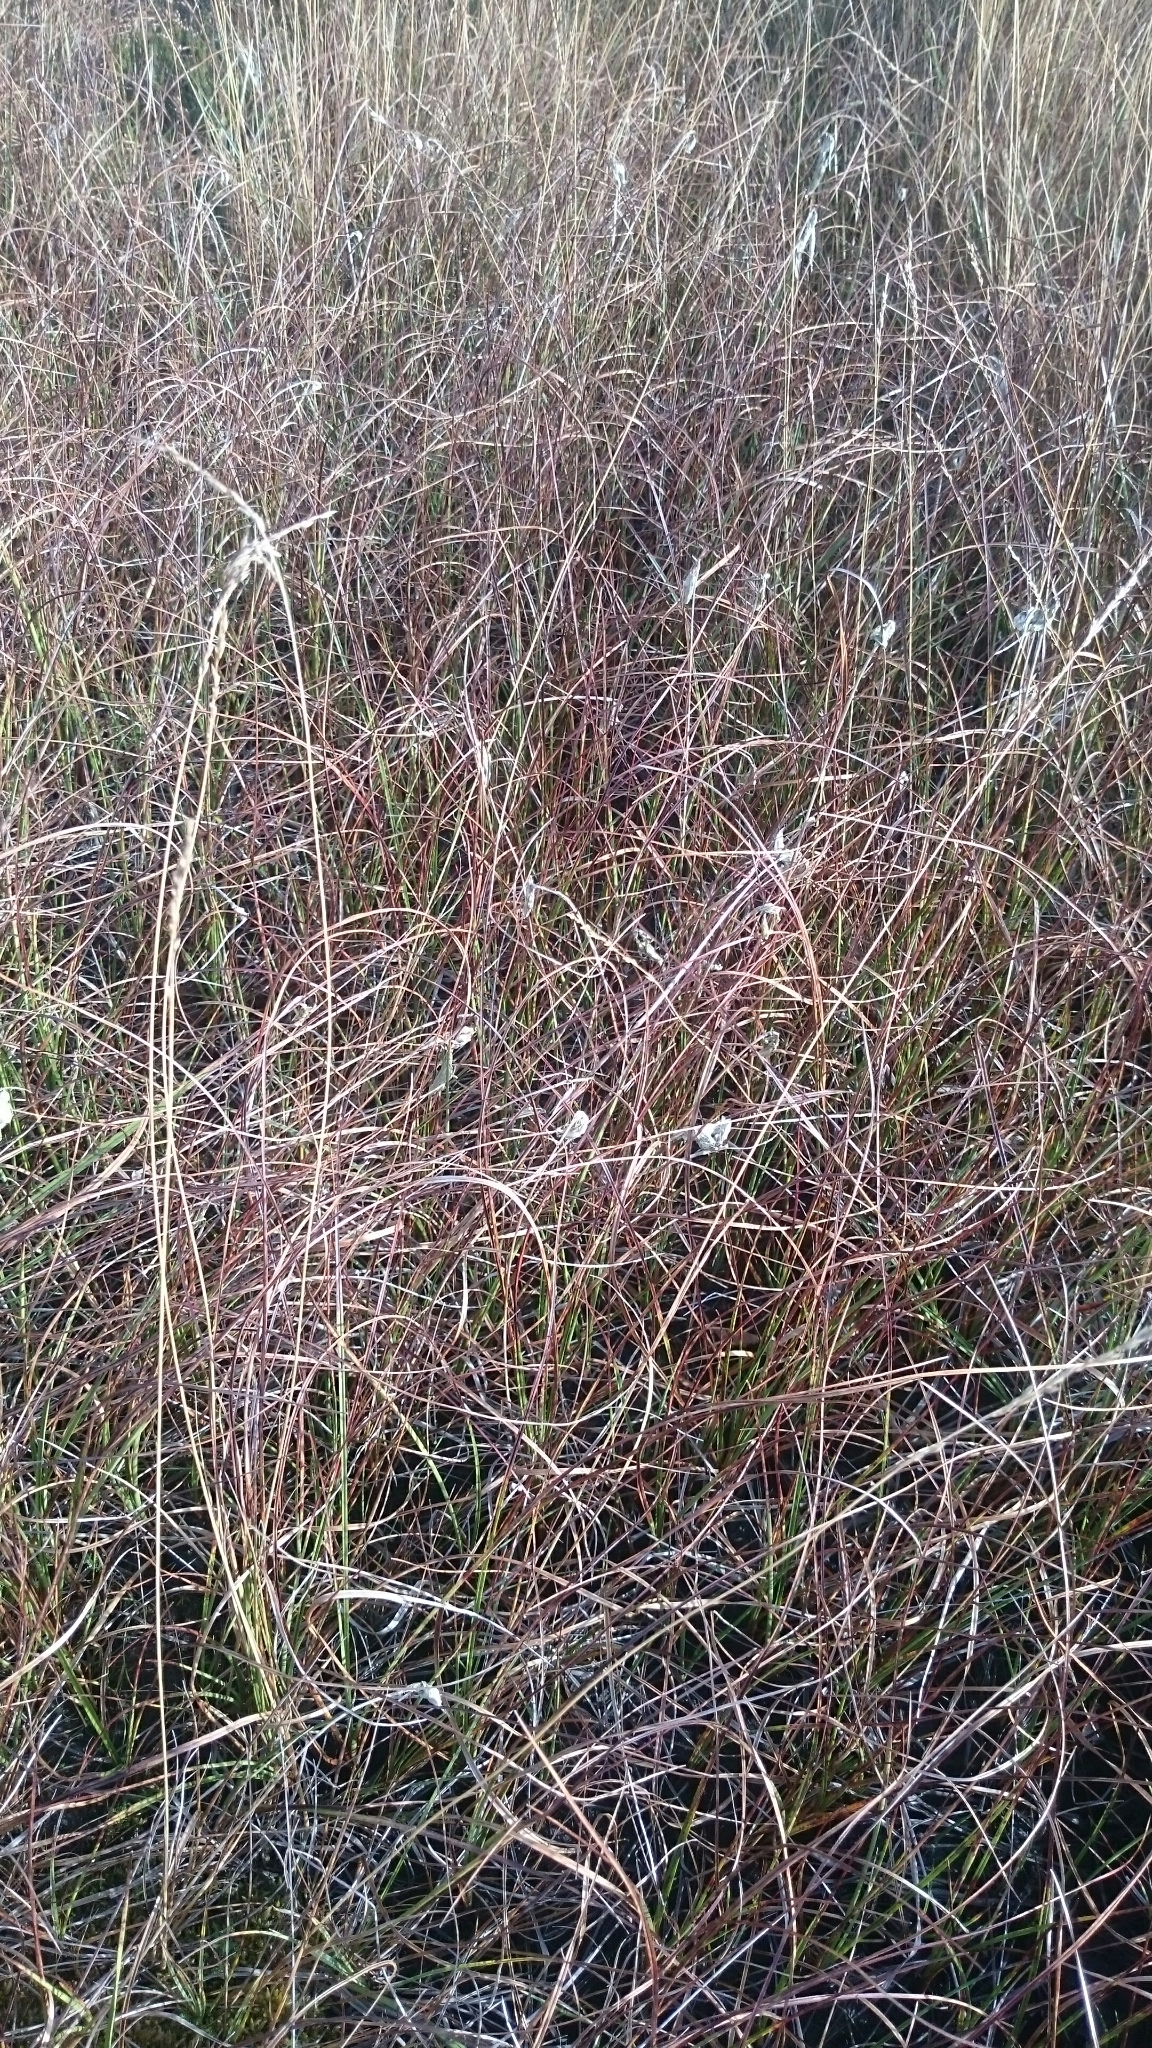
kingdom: Plantae
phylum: Tracheophyta
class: Liliopsida
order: Poales
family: Cyperaceae
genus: Eriophorum
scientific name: Eriophorum angustifolium
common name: Common cottongrass
